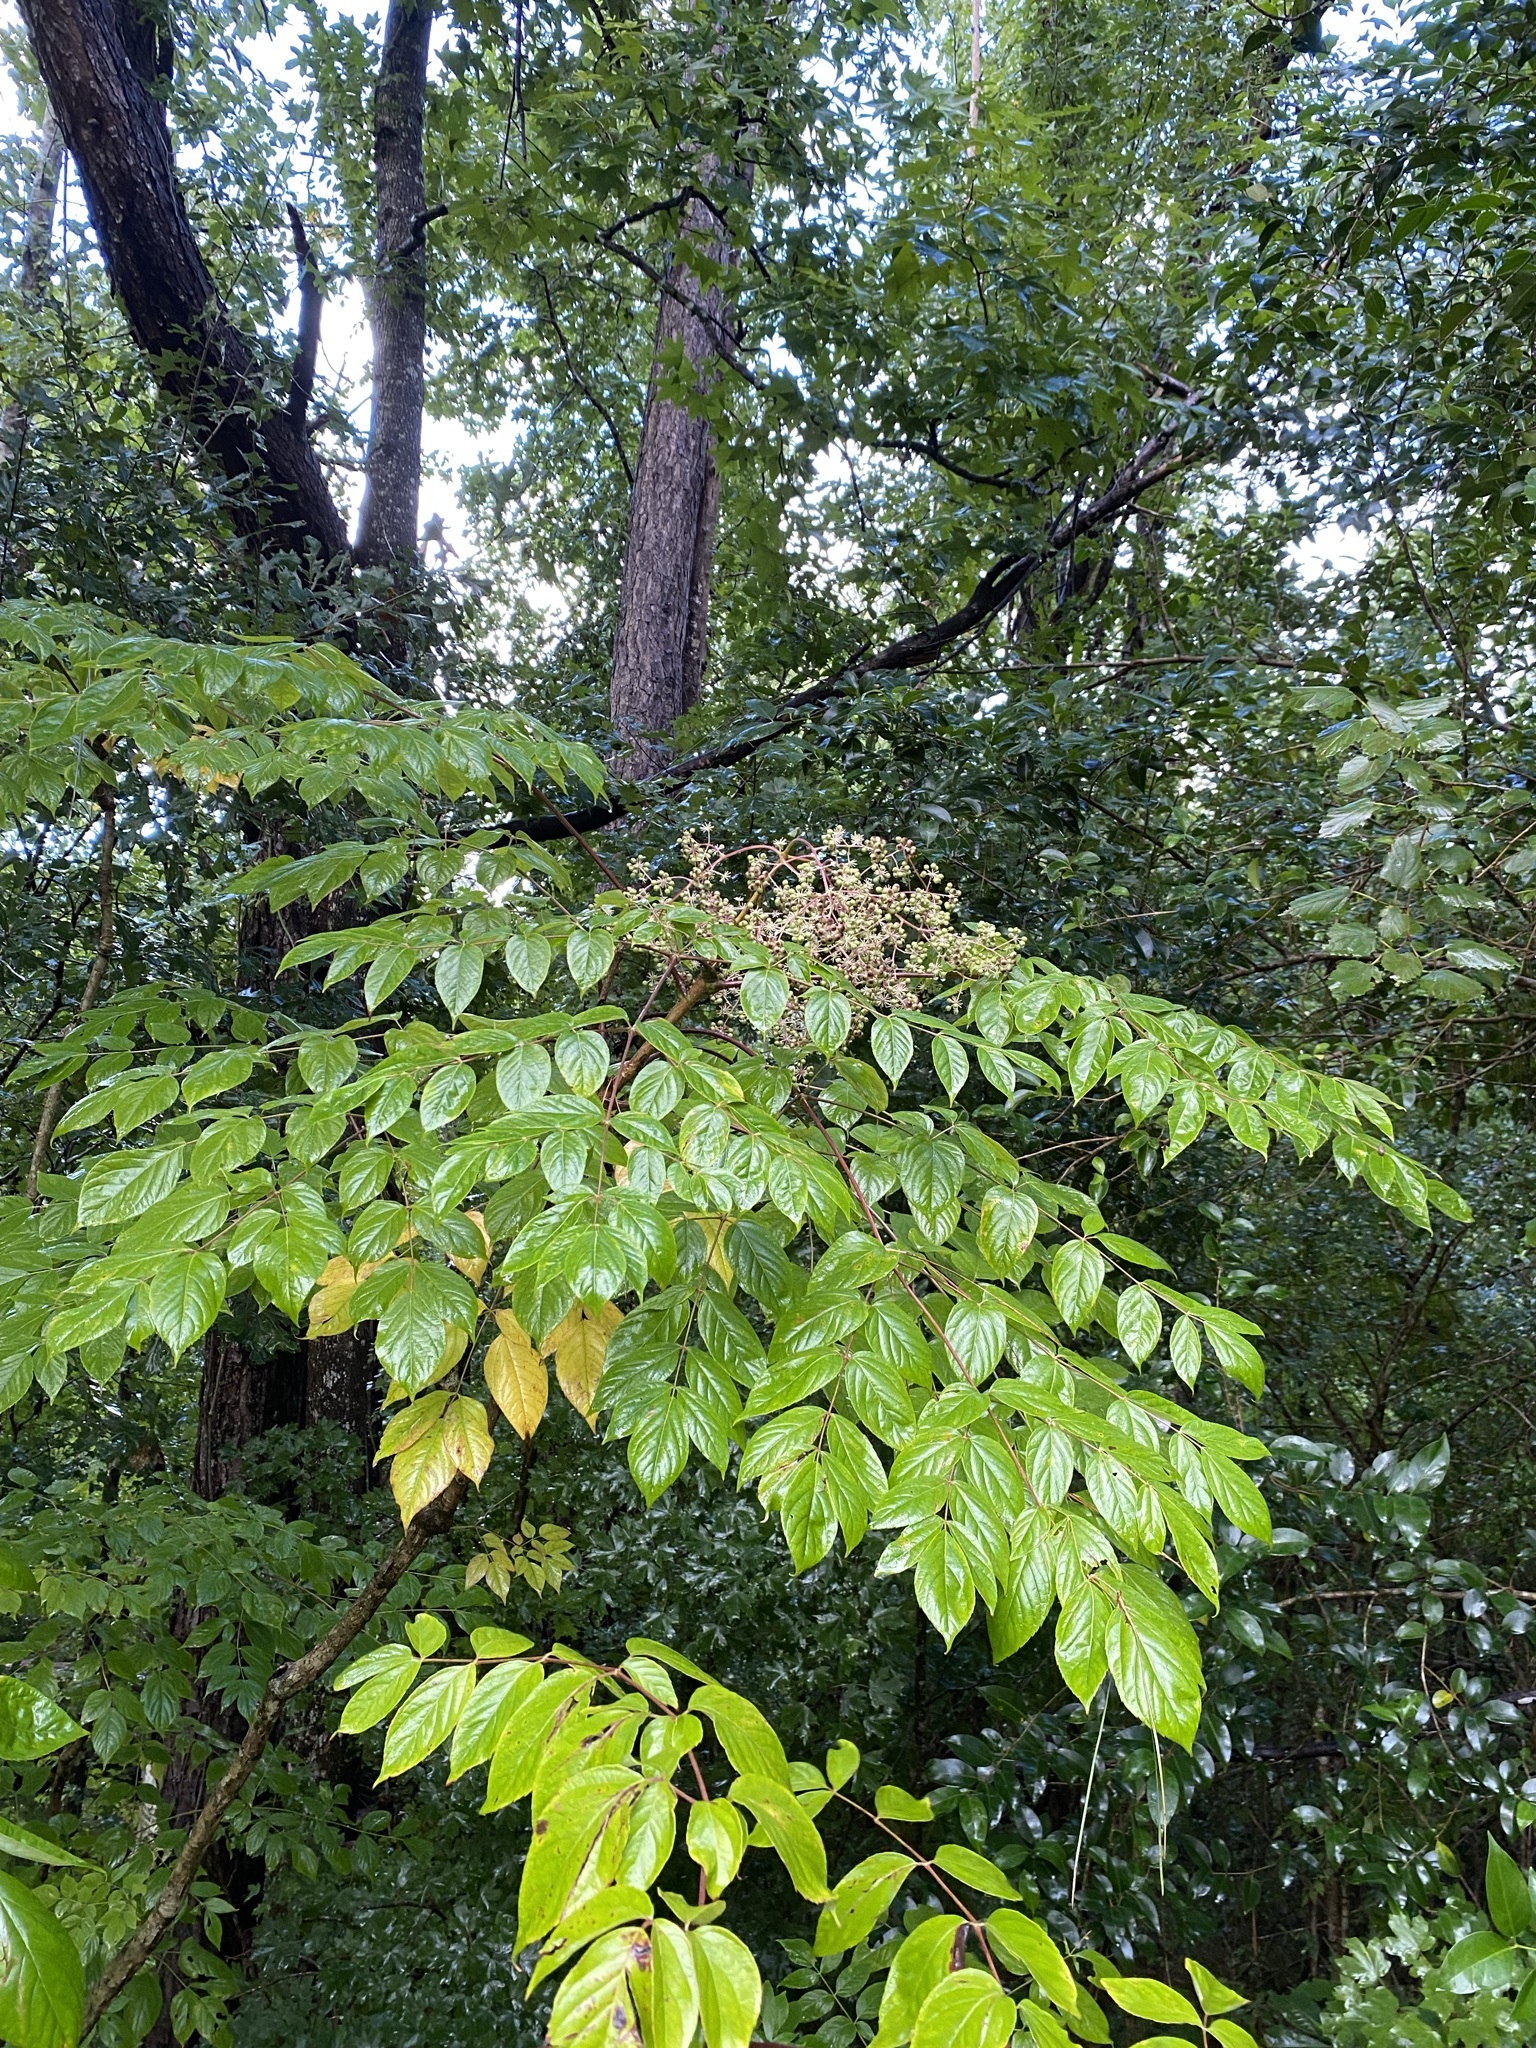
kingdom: Plantae
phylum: Tracheophyta
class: Magnoliopsida
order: Apiales
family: Araliaceae
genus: Aralia
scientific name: Aralia spinosa
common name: Hercules'-club
